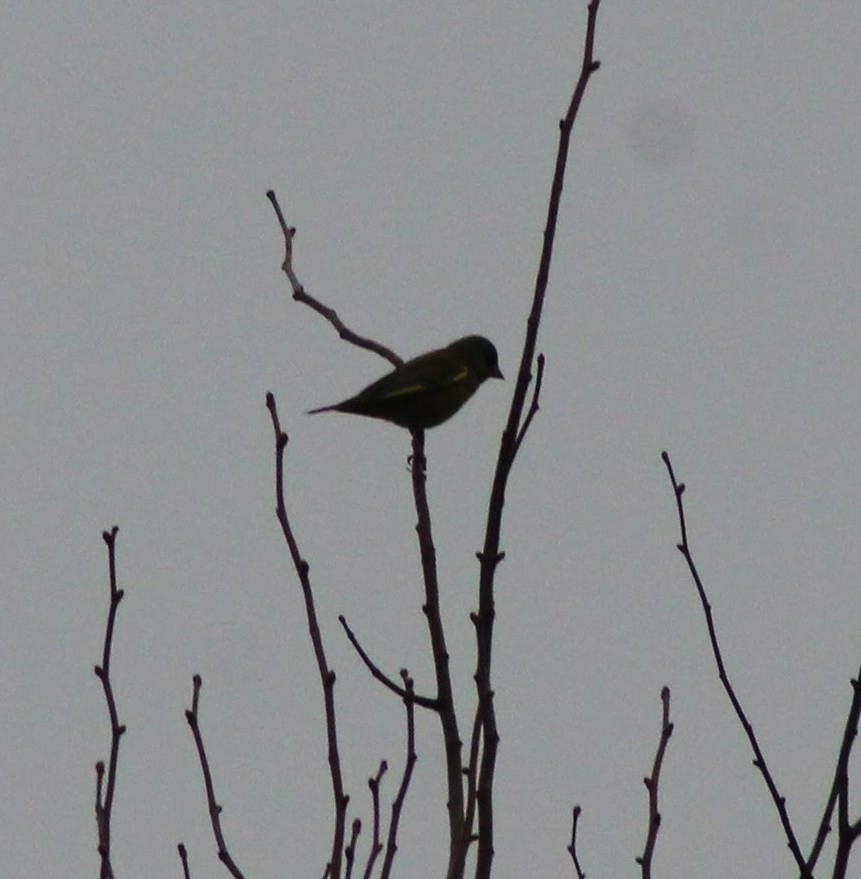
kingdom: Plantae
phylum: Tracheophyta
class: Liliopsida
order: Poales
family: Poaceae
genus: Chloris
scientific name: Chloris chloris
